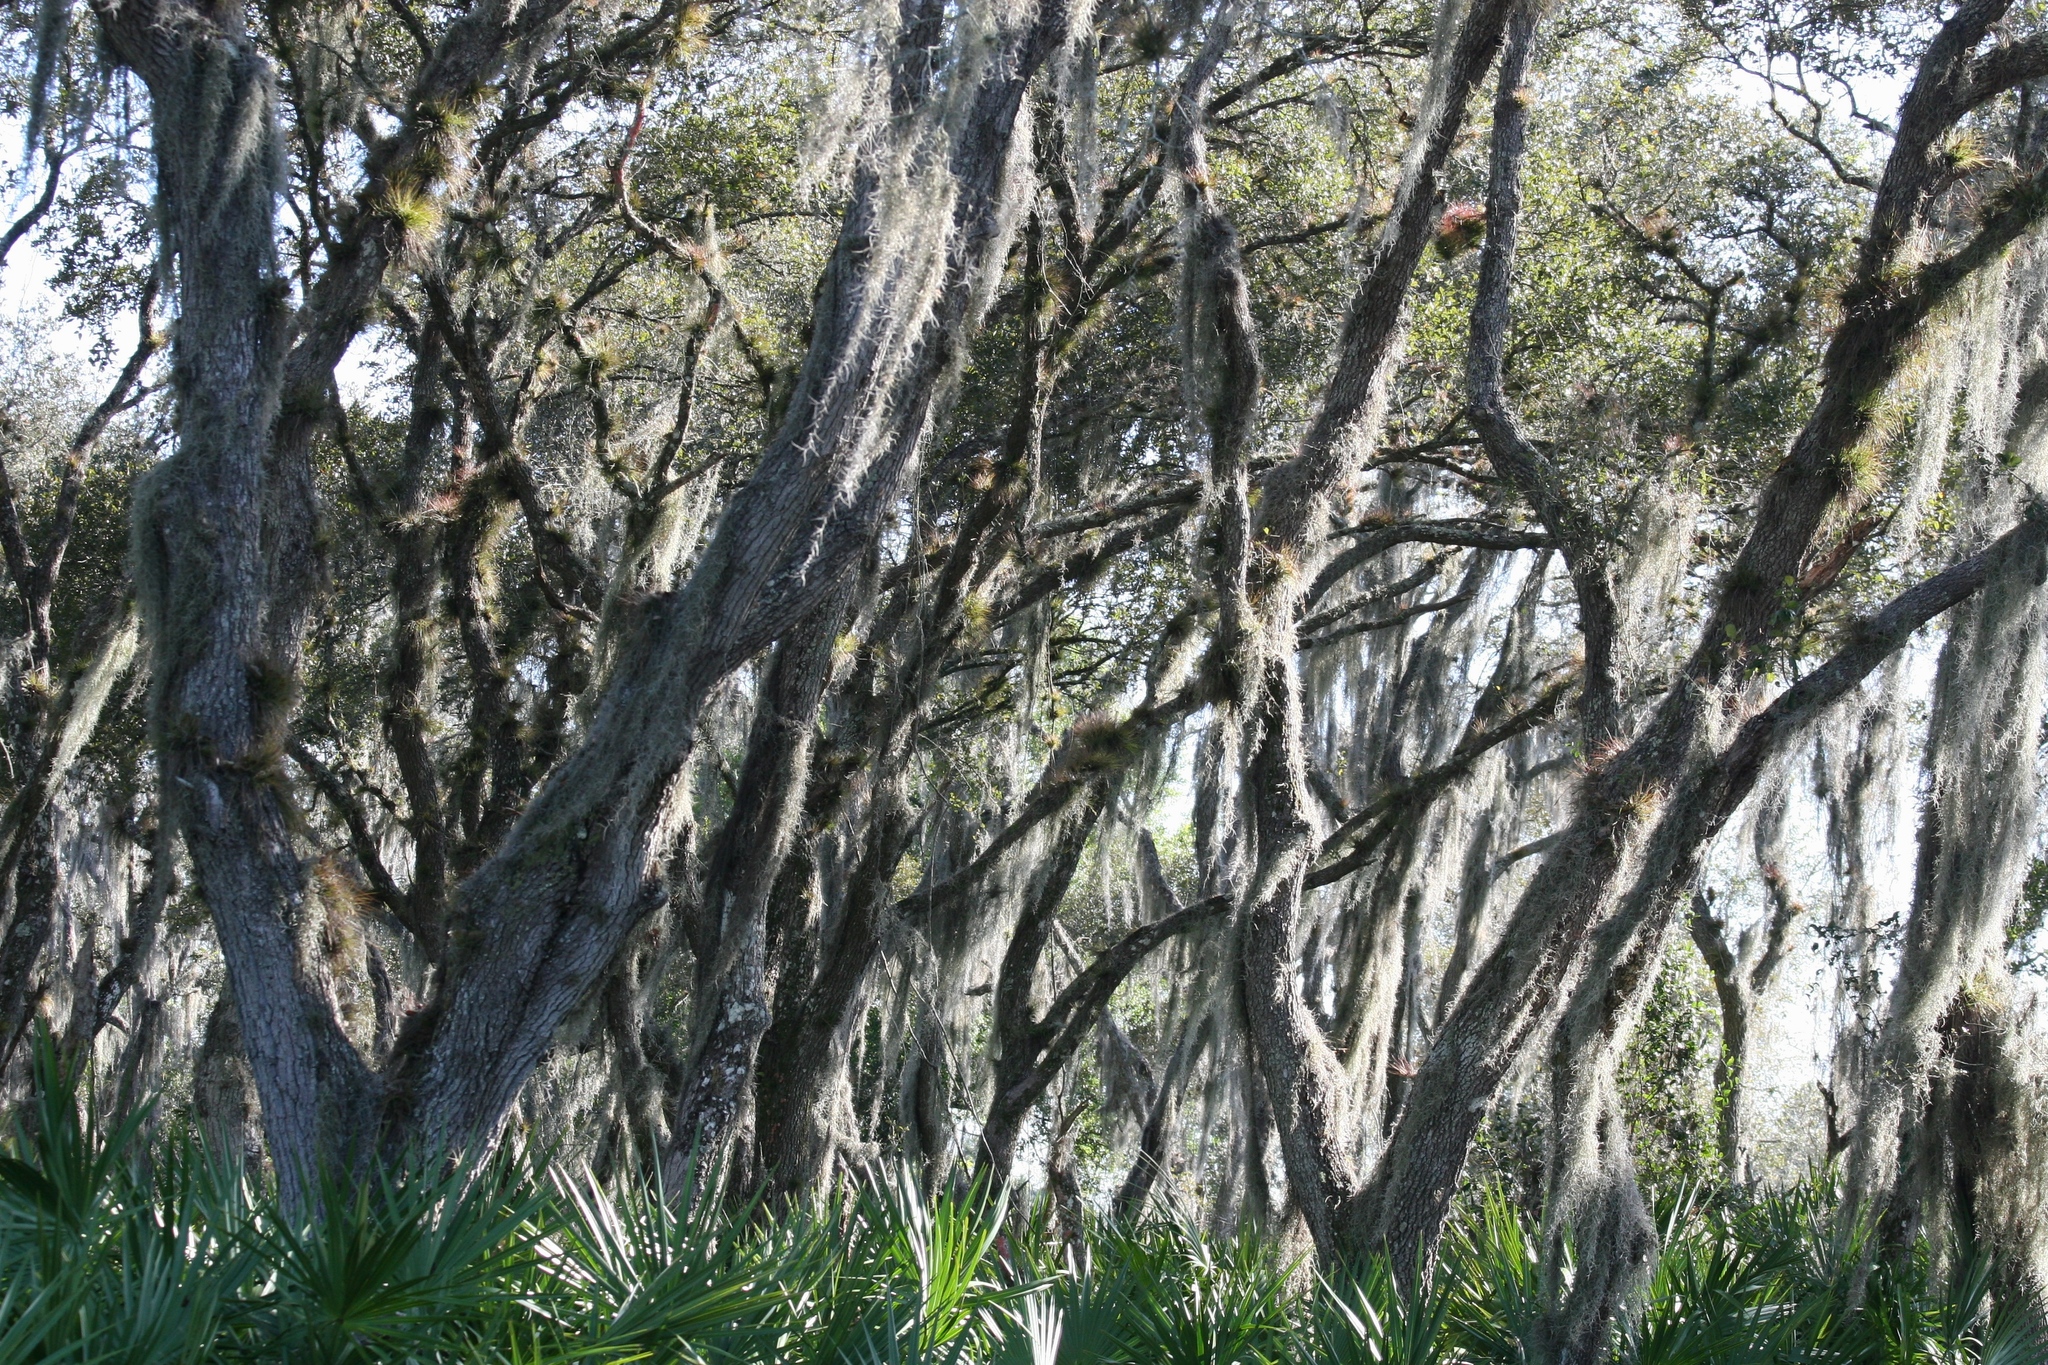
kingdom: Plantae
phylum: Tracheophyta
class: Liliopsida
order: Poales
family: Bromeliaceae
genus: Tillandsia
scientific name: Tillandsia usneoides
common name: Spanish moss
